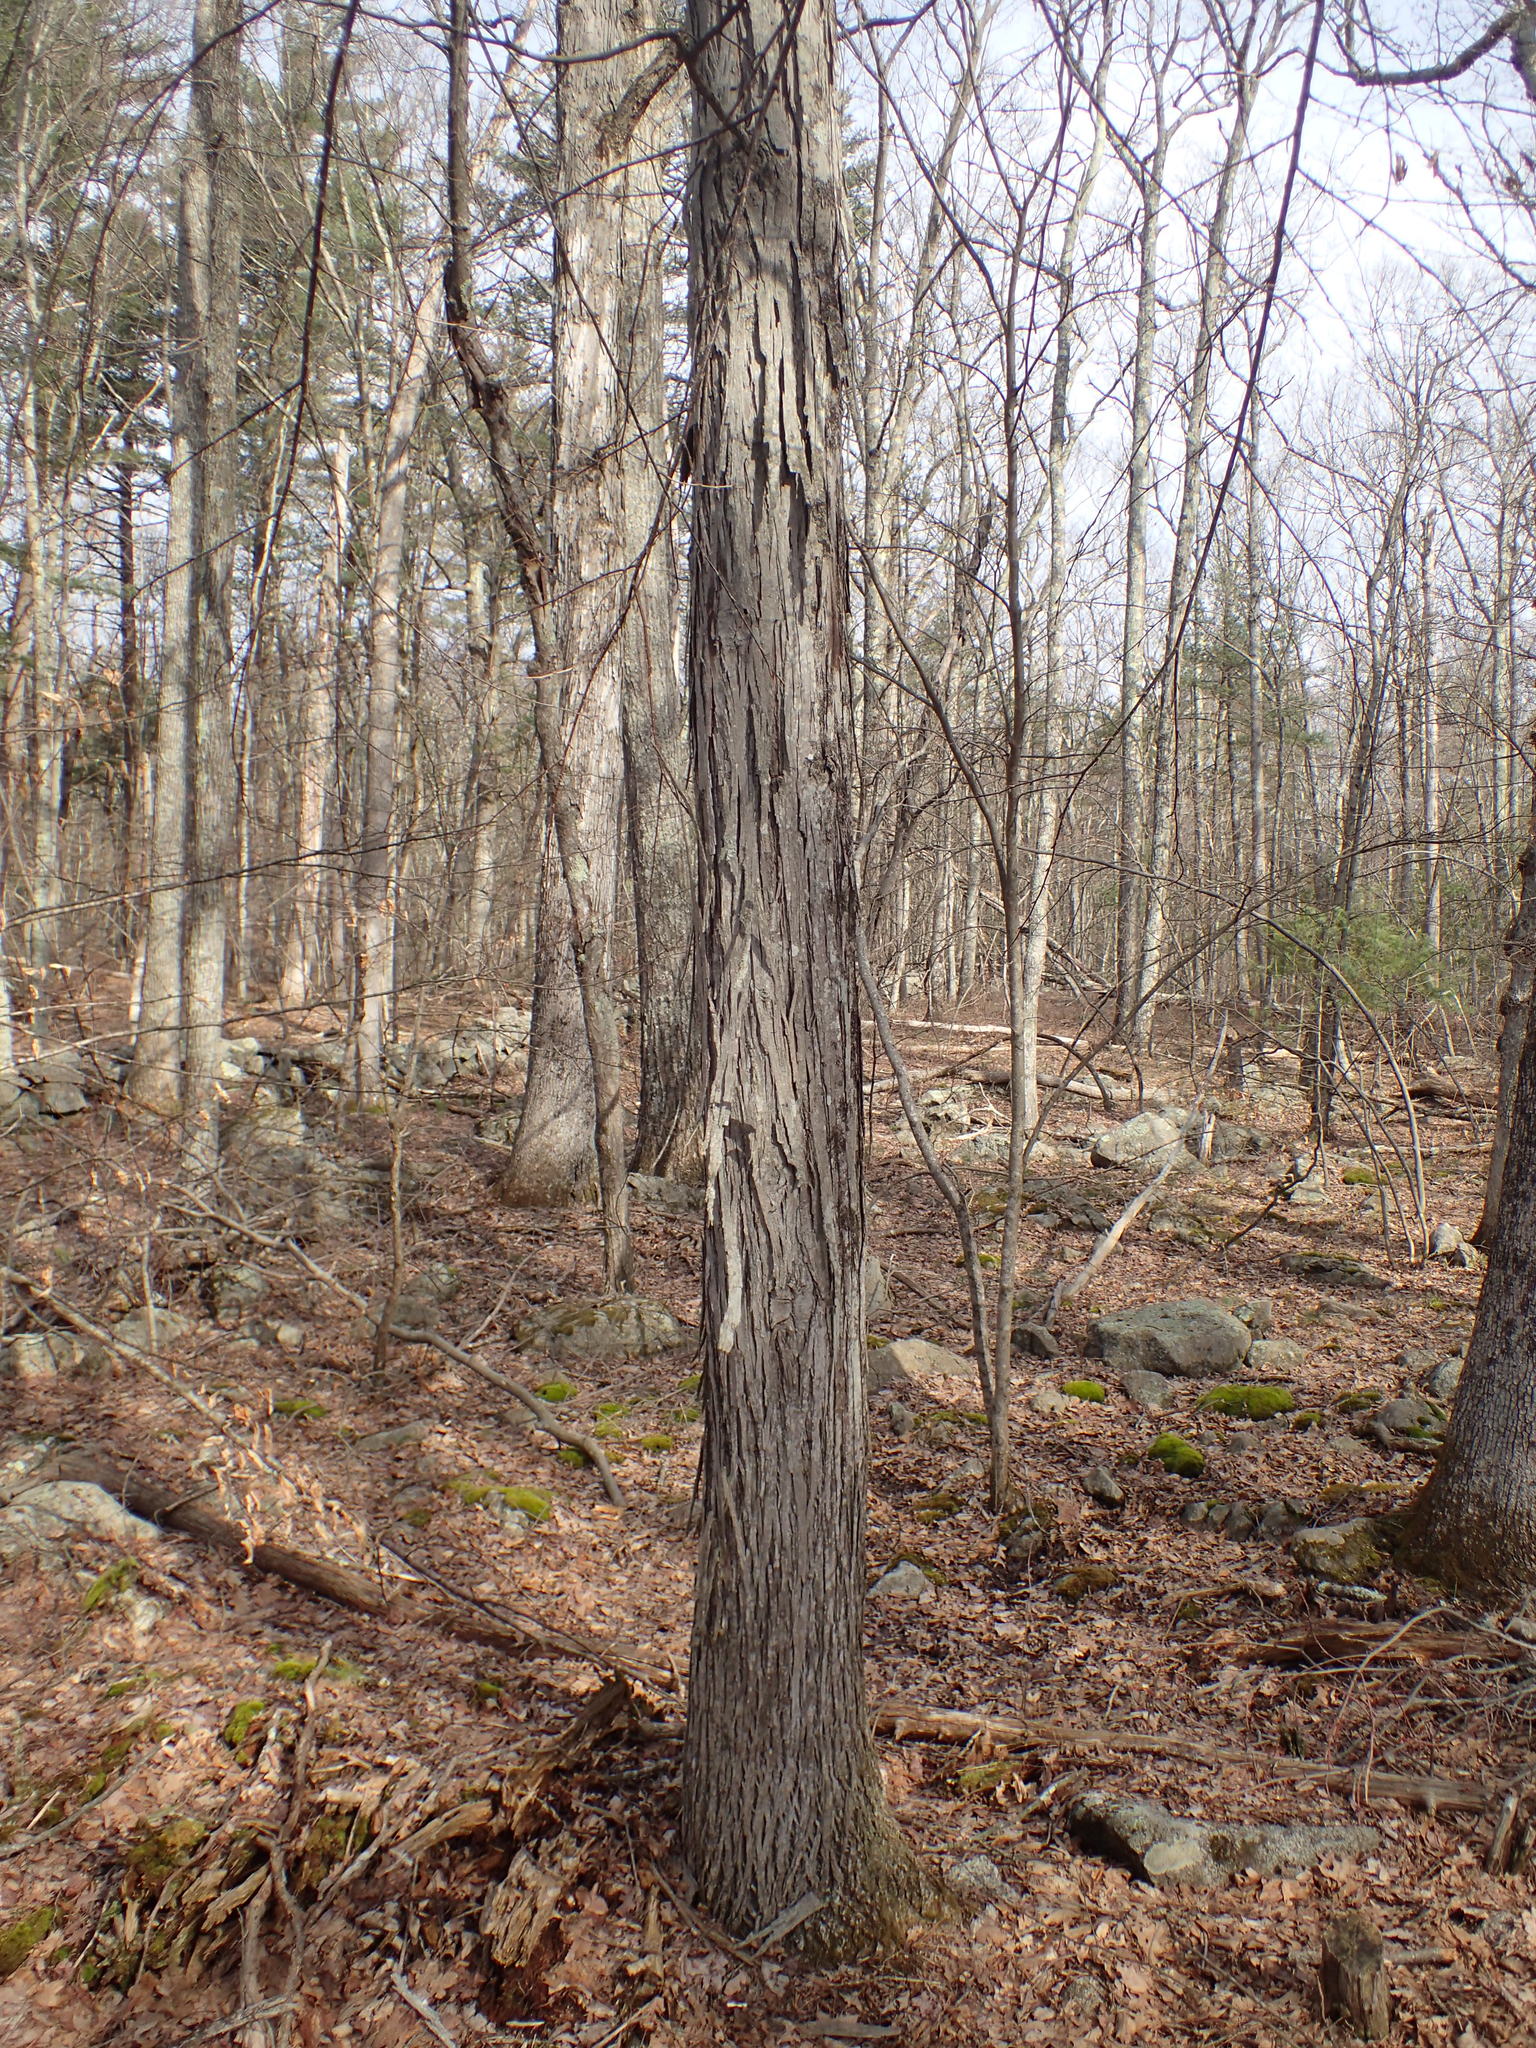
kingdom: Plantae
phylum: Tracheophyta
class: Magnoliopsida
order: Fagales
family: Juglandaceae
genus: Carya
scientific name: Carya ovata
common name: Shagbark hickory
